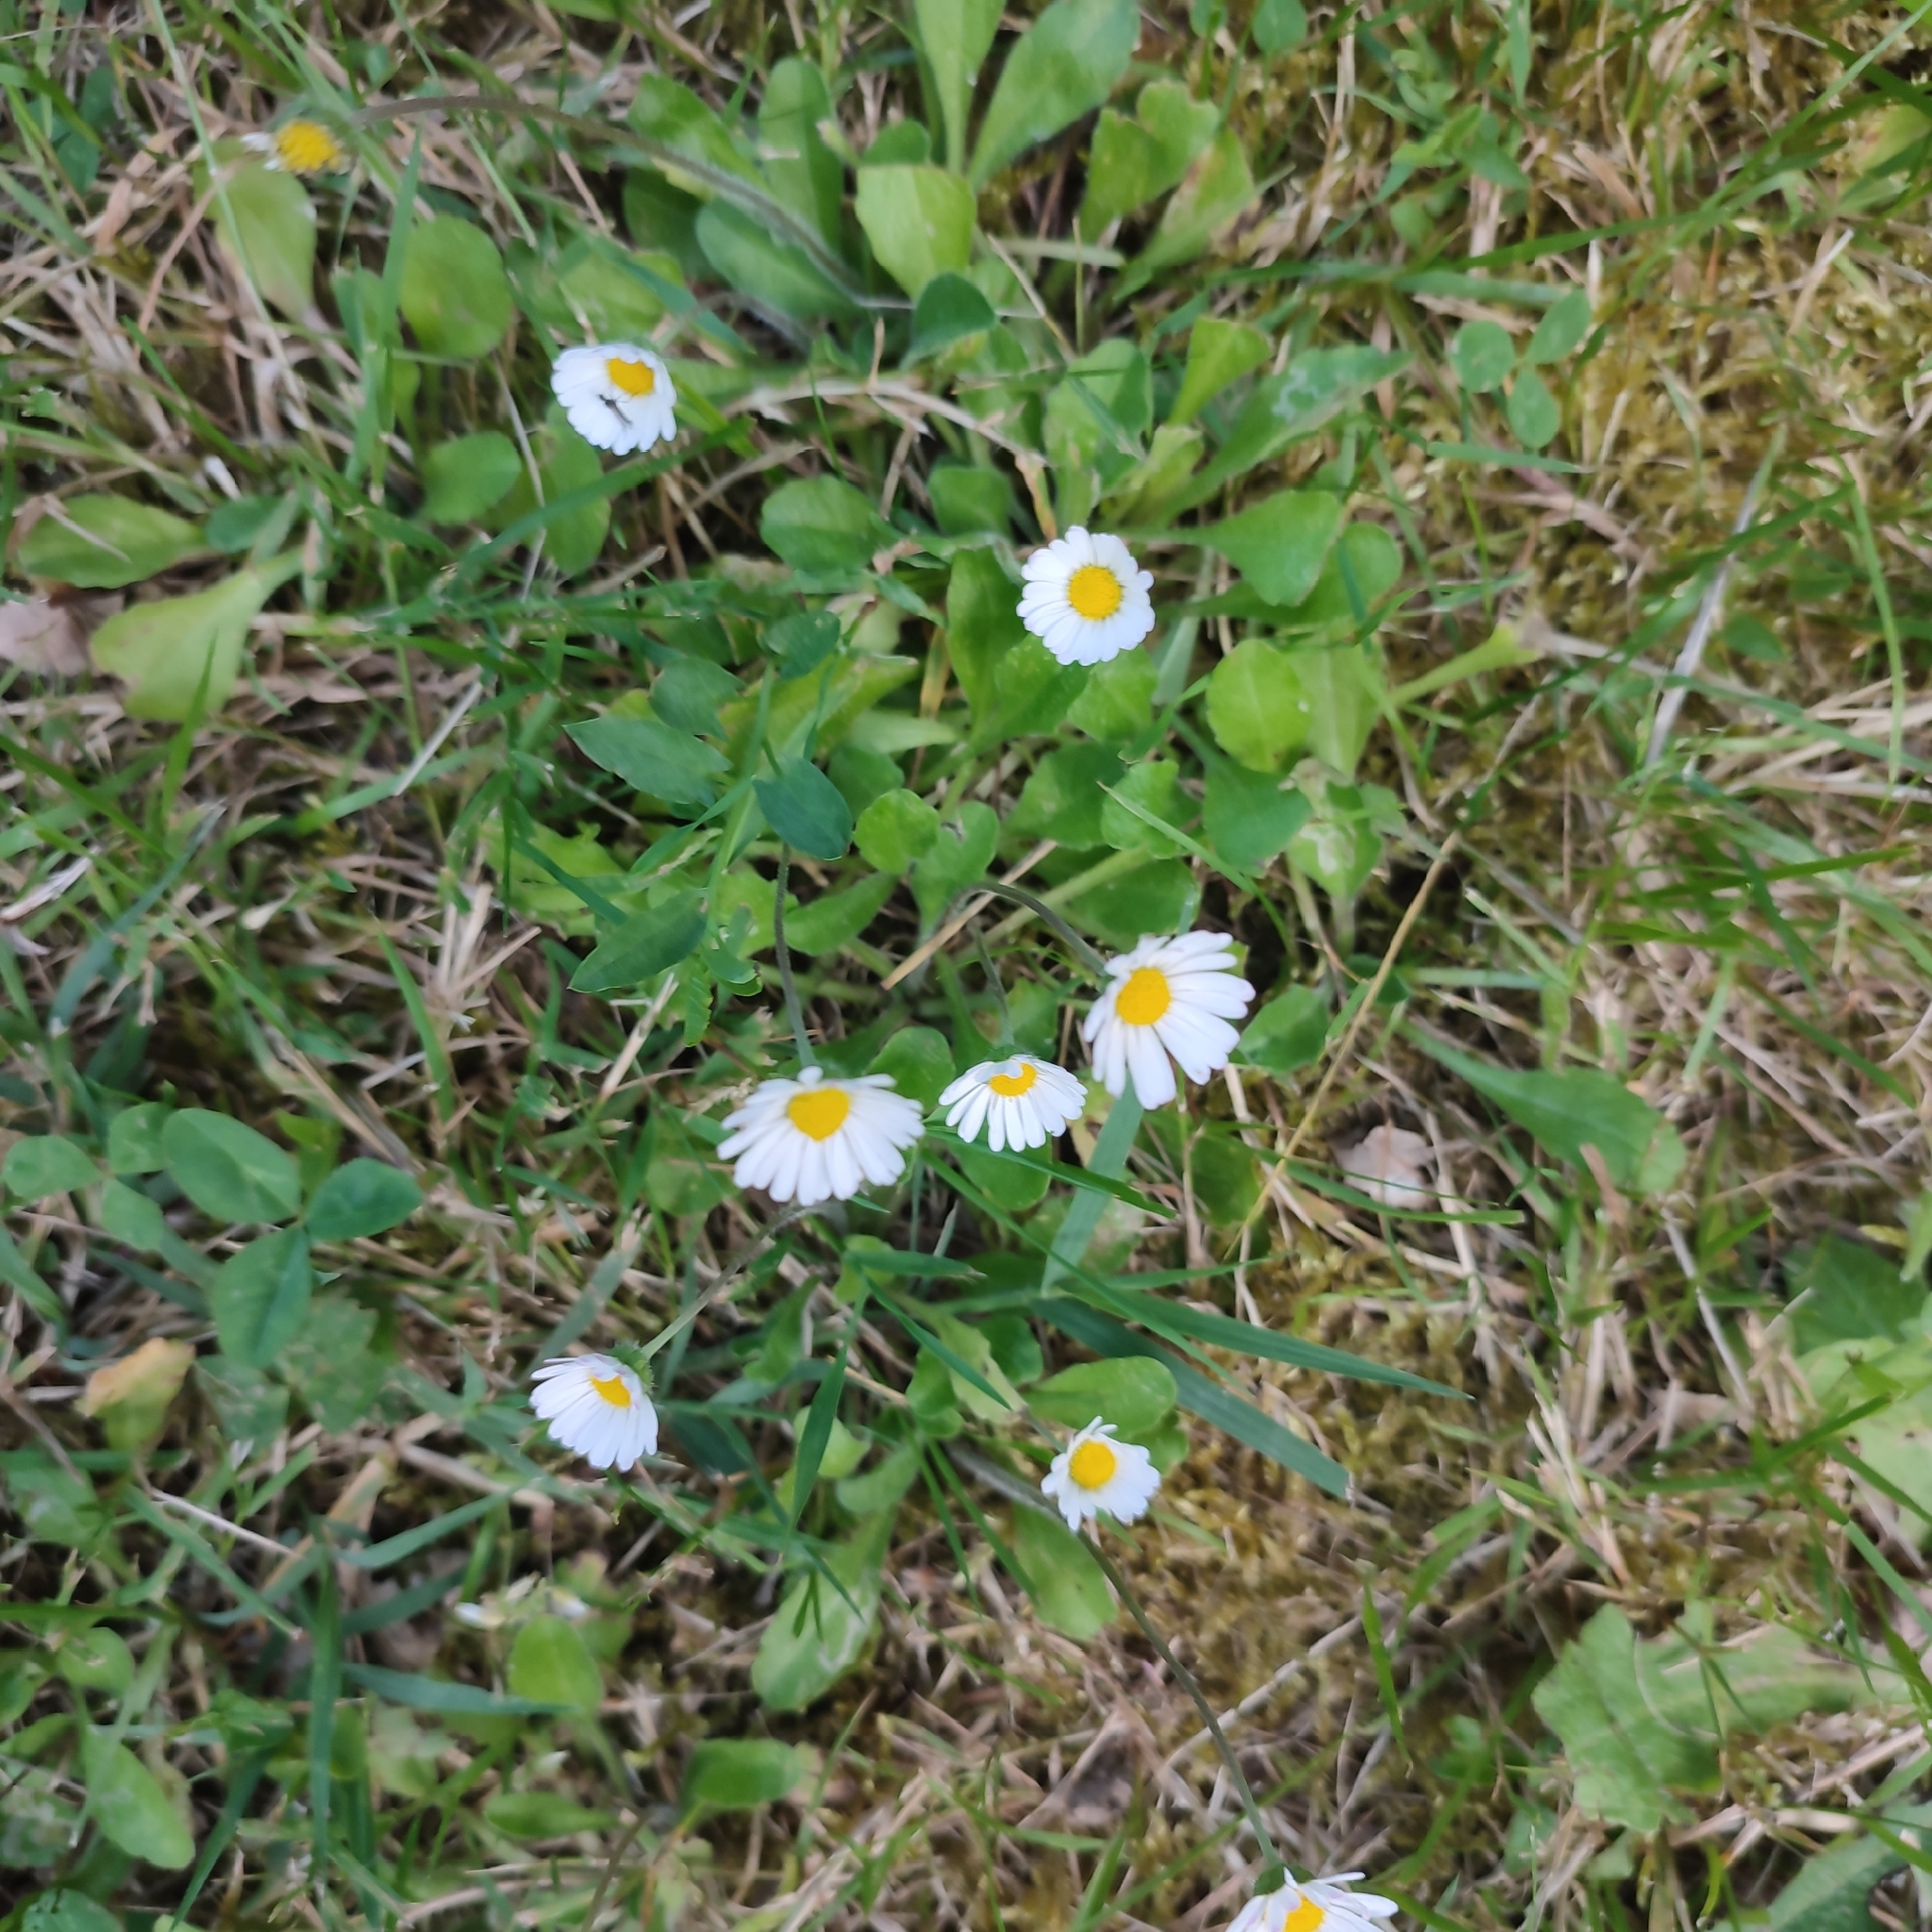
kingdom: Plantae
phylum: Tracheophyta
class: Magnoliopsida
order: Asterales
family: Asteraceae
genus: Bellis
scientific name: Bellis perennis
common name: Lawndaisy
